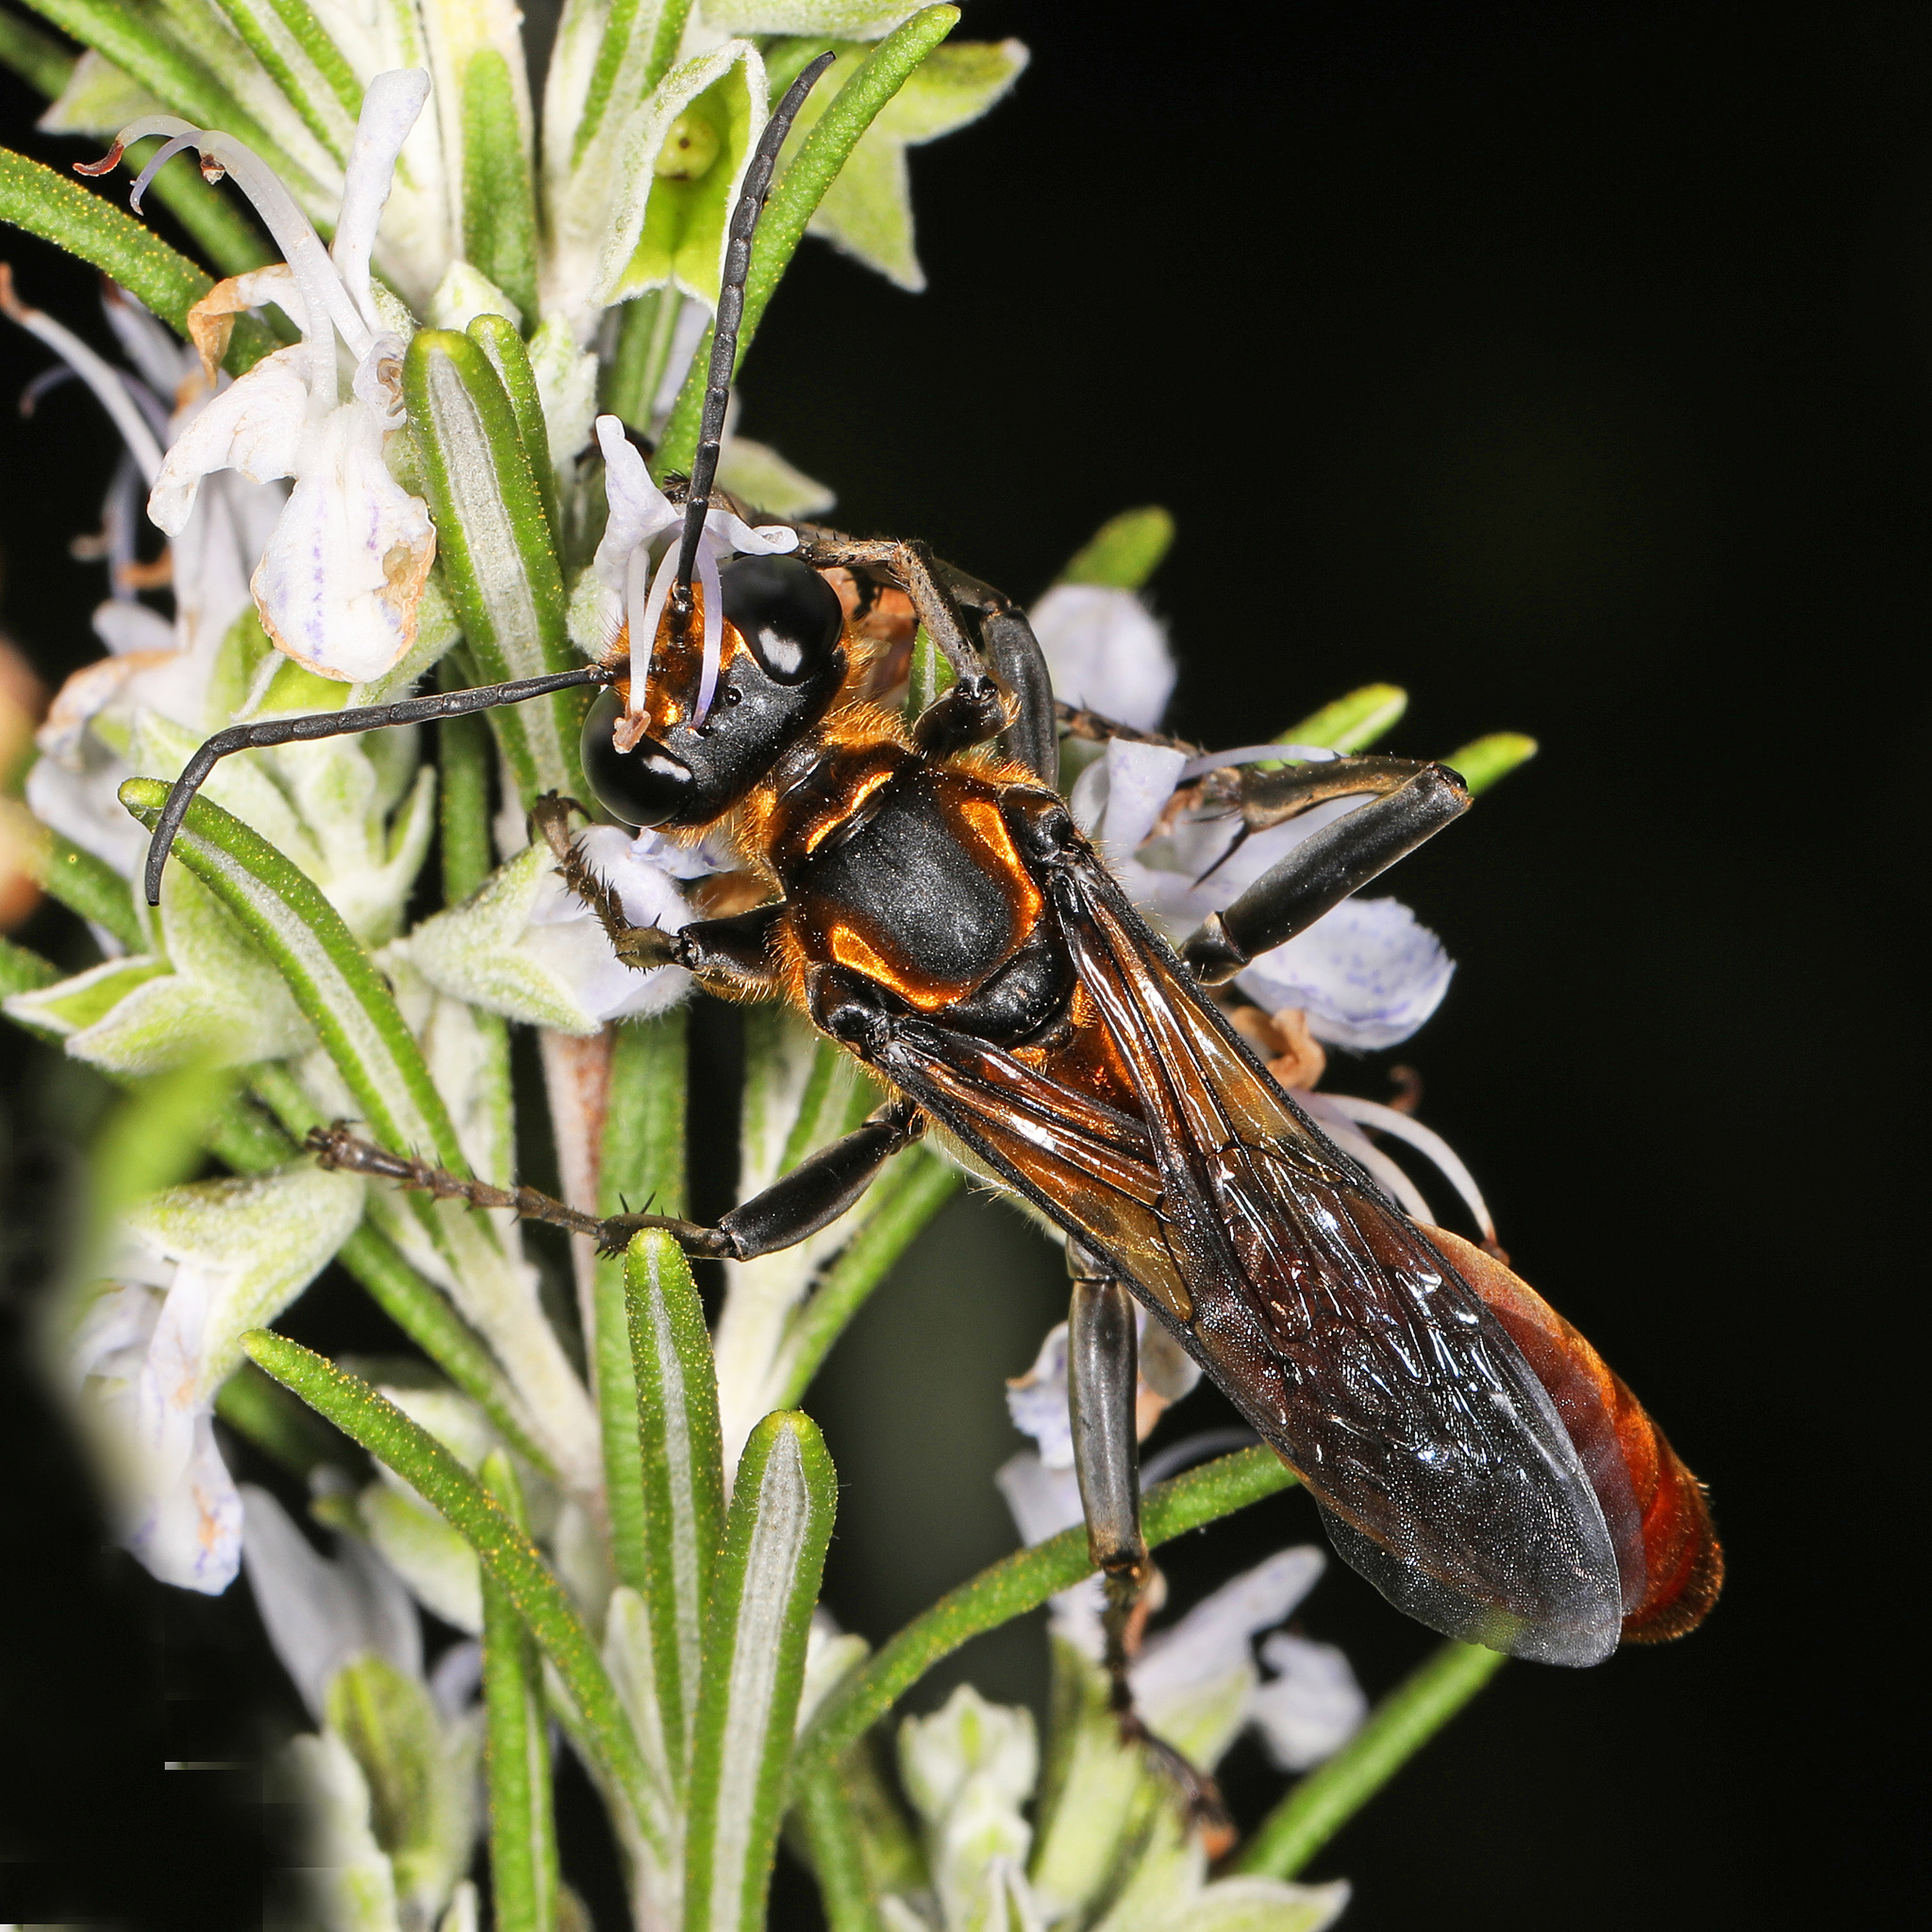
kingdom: Animalia
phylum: Arthropoda
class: Insecta
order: Hymenoptera
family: Sphecidae
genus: Sphex
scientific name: Sphex habenus
